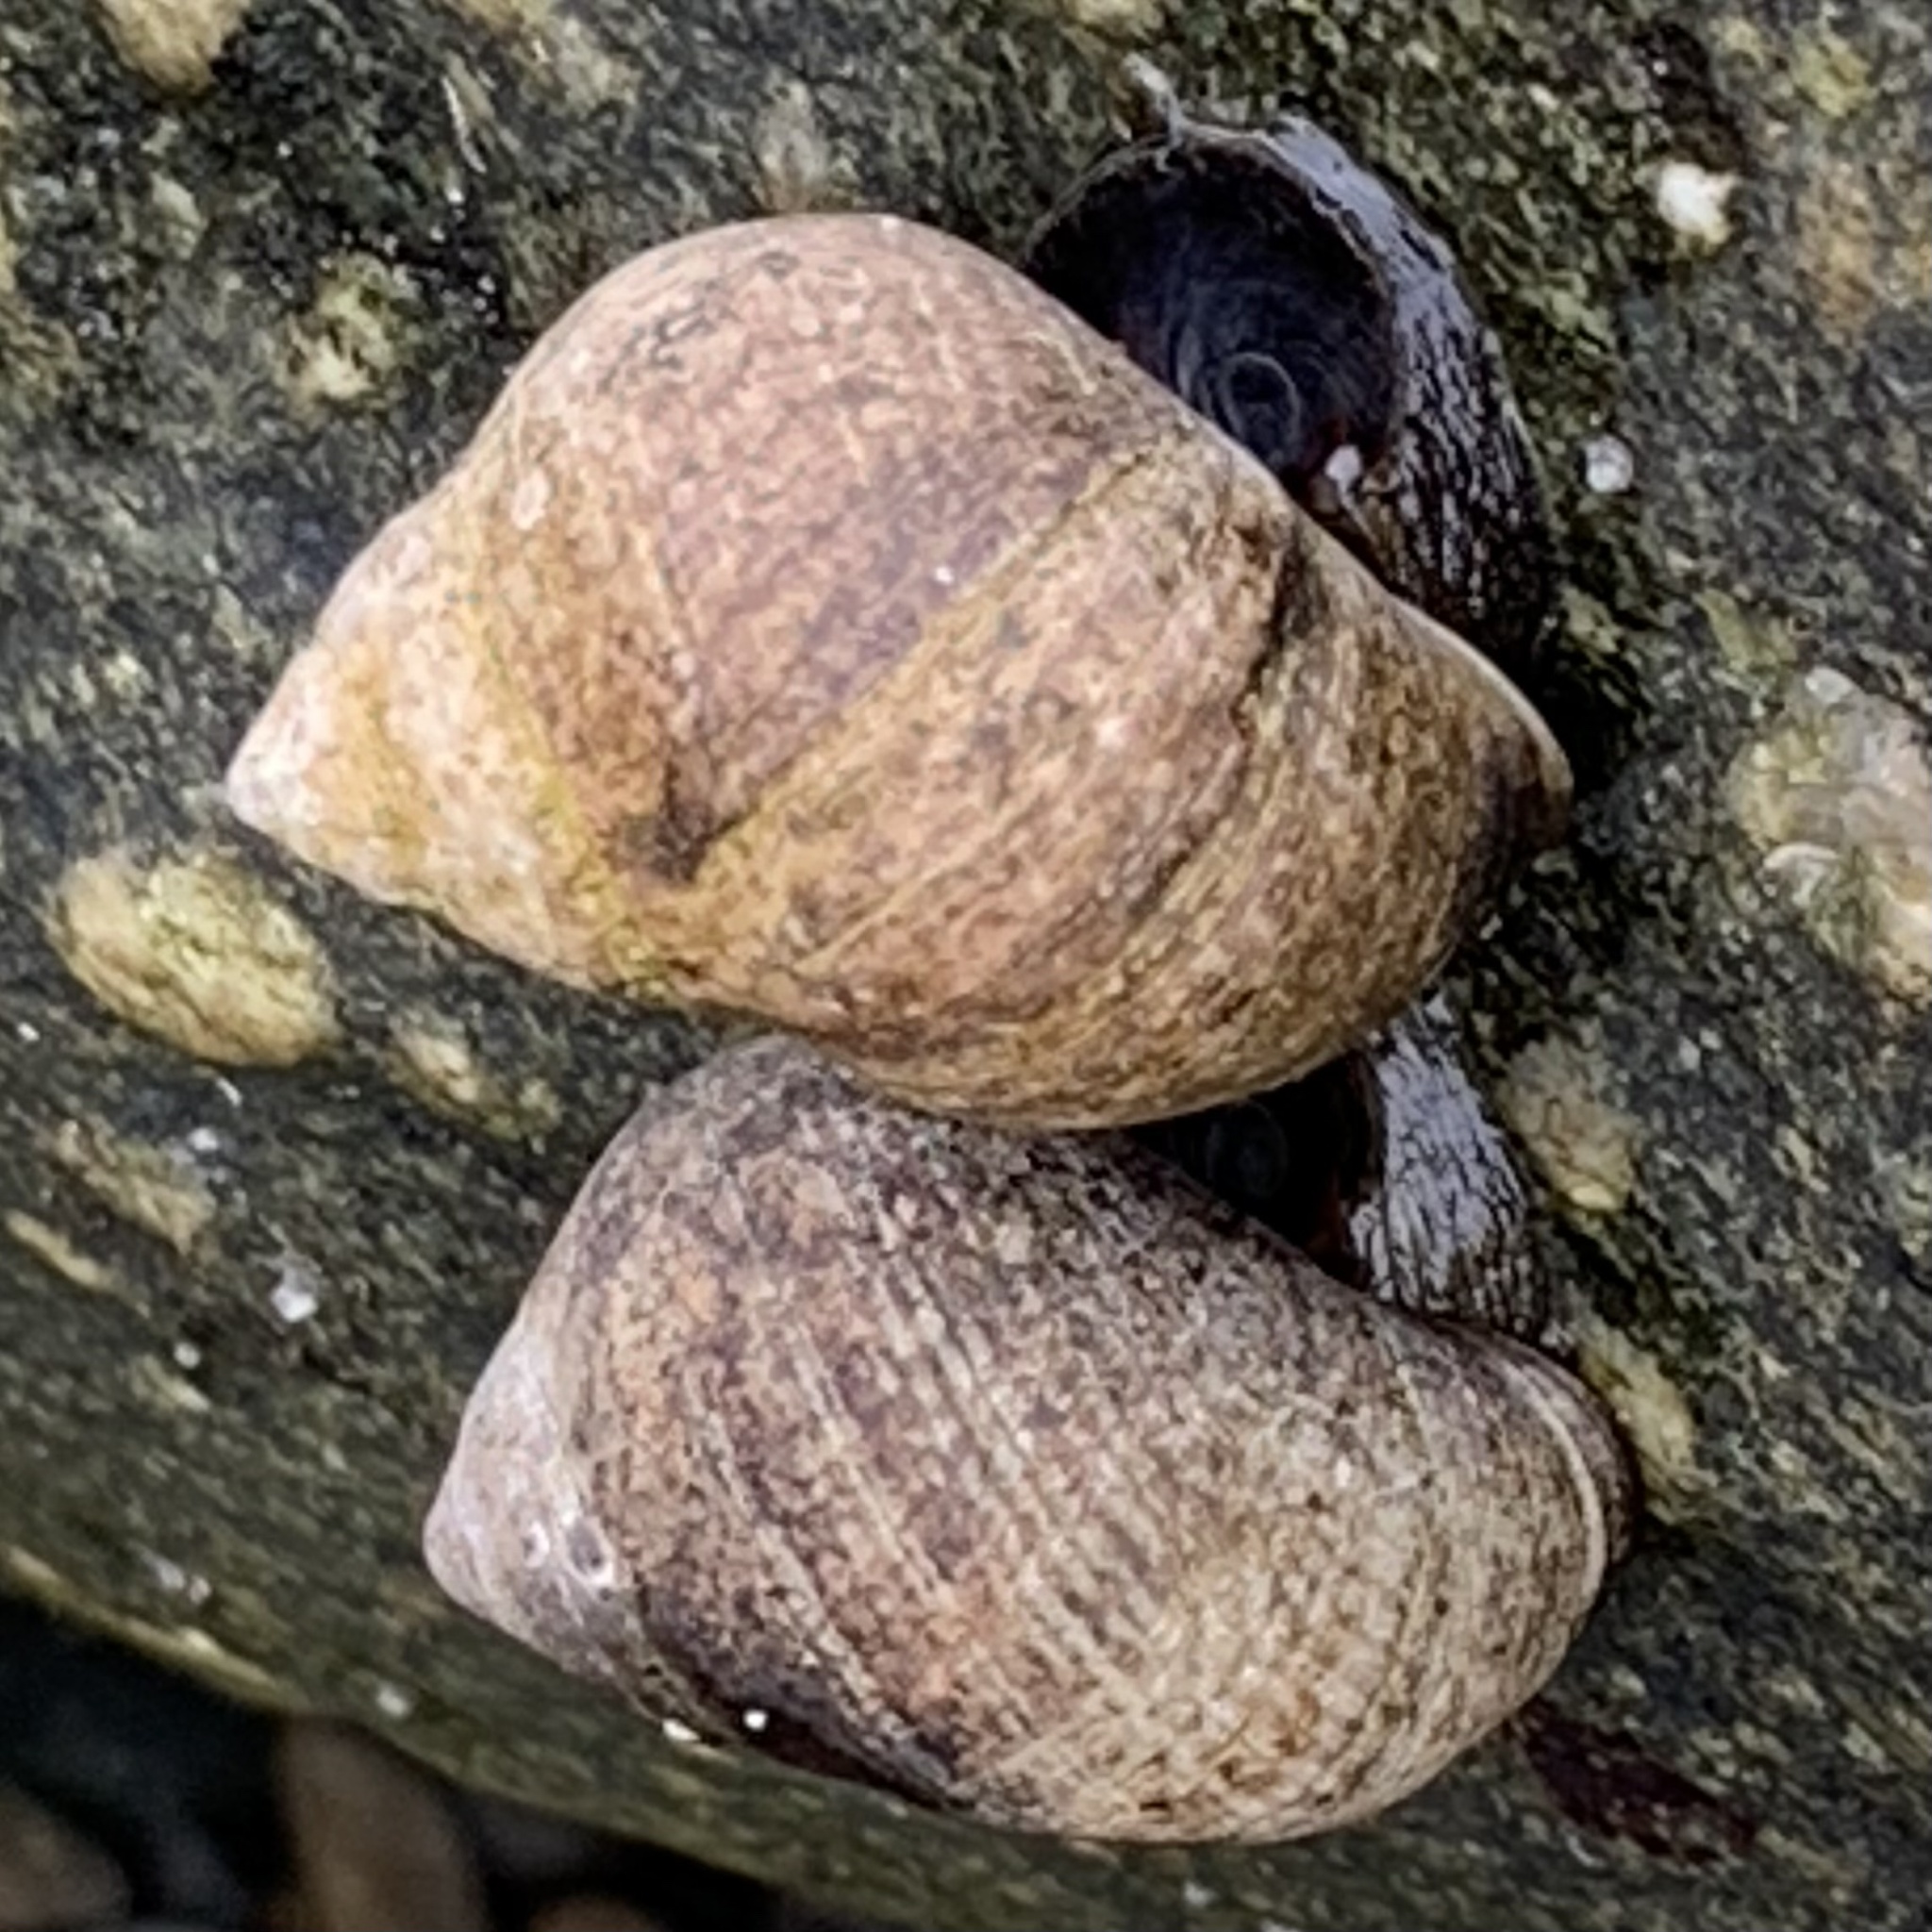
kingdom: Animalia
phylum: Mollusca
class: Gastropoda
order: Littorinimorpha
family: Littorinidae
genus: Littorina
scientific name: Littorina littorea
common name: Common periwinkle
